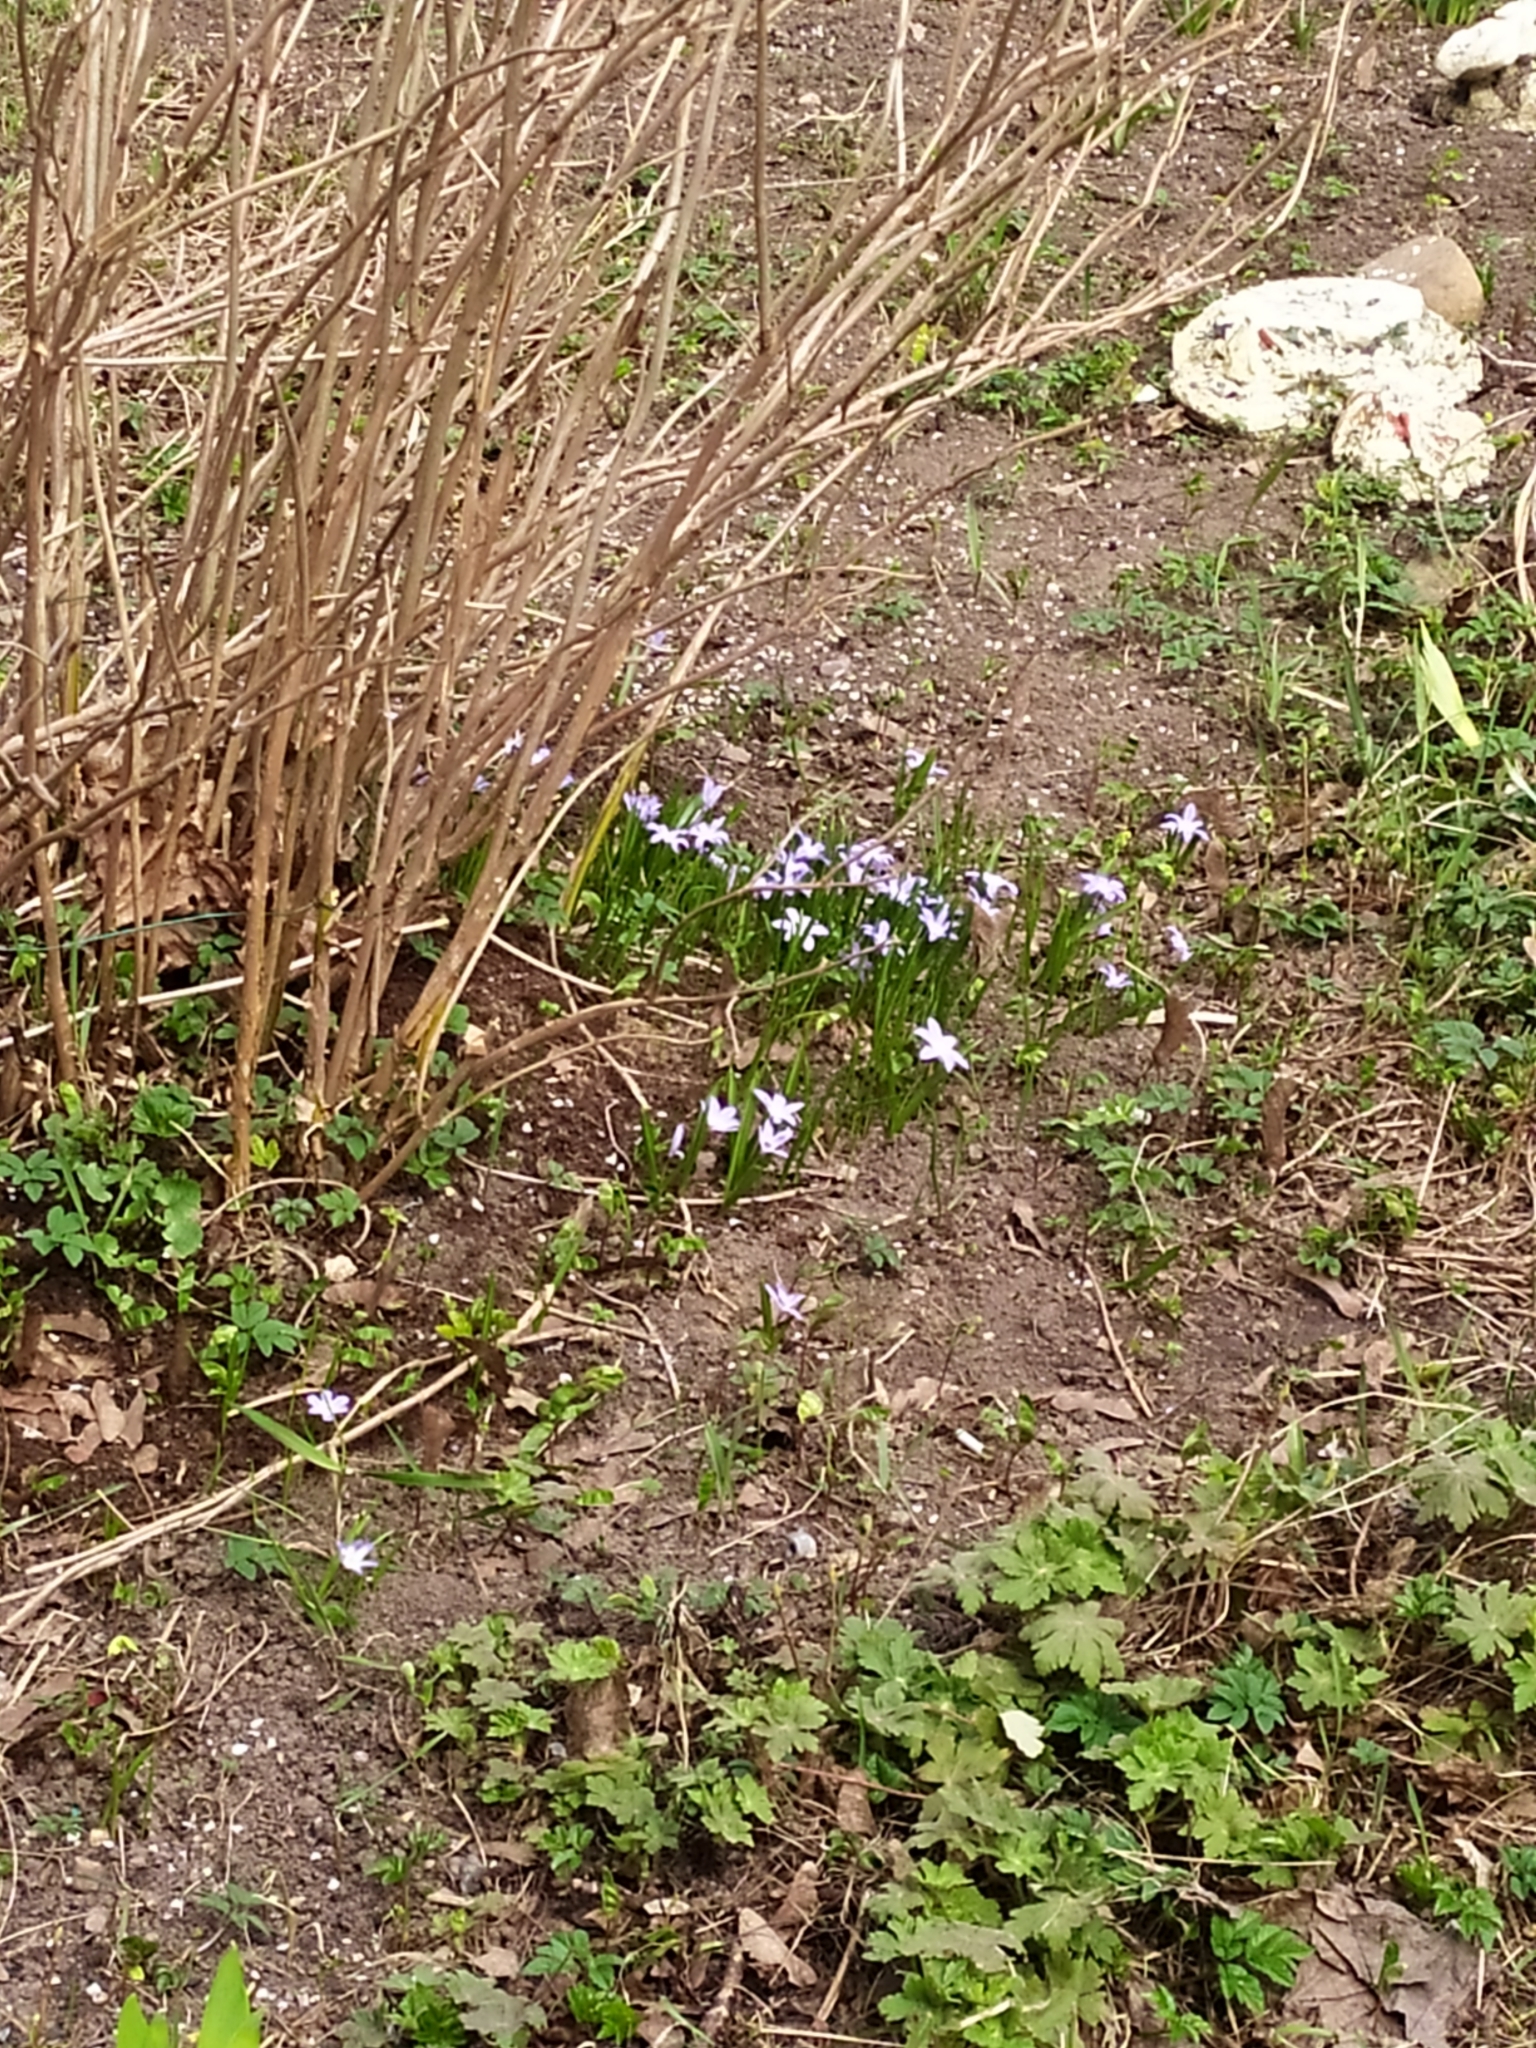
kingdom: Plantae
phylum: Tracheophyta
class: Liliopsida
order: Asparagales
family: Asparagaceae
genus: Scilla
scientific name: Scilla luciliae
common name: Boissier's glory-of-the-snow
